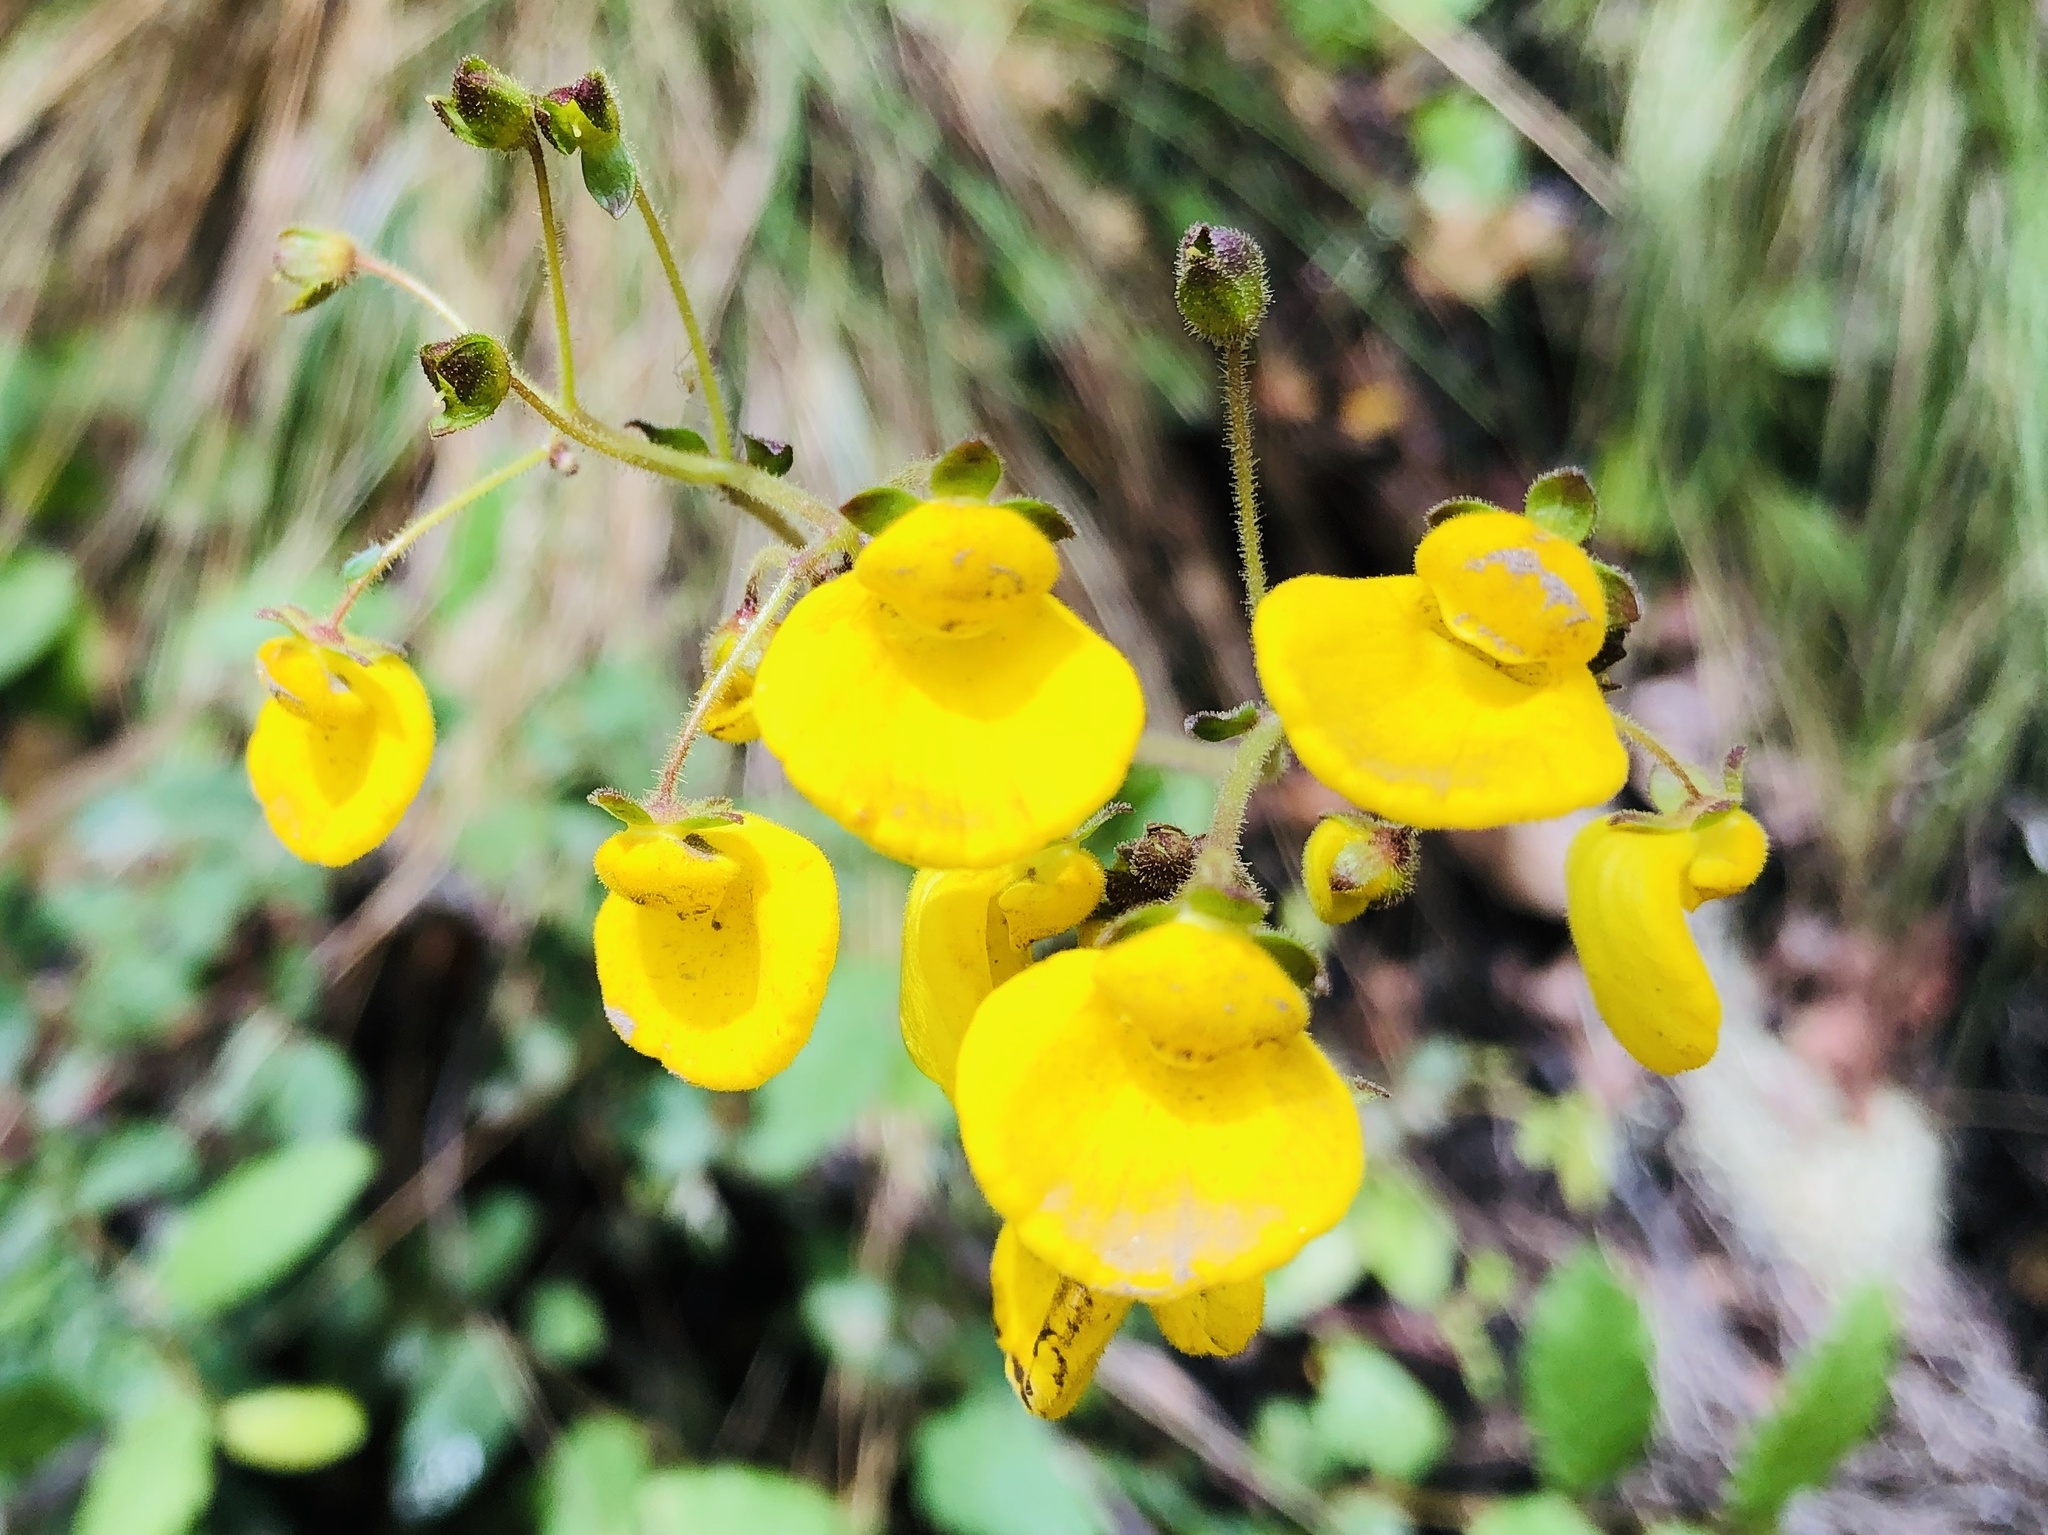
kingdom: Plantae
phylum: Tracheophyta
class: Magnoliopsida
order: Lamiales
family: Calceolariaceae
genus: Calceolaria
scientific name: Calceolaria valdiviana
